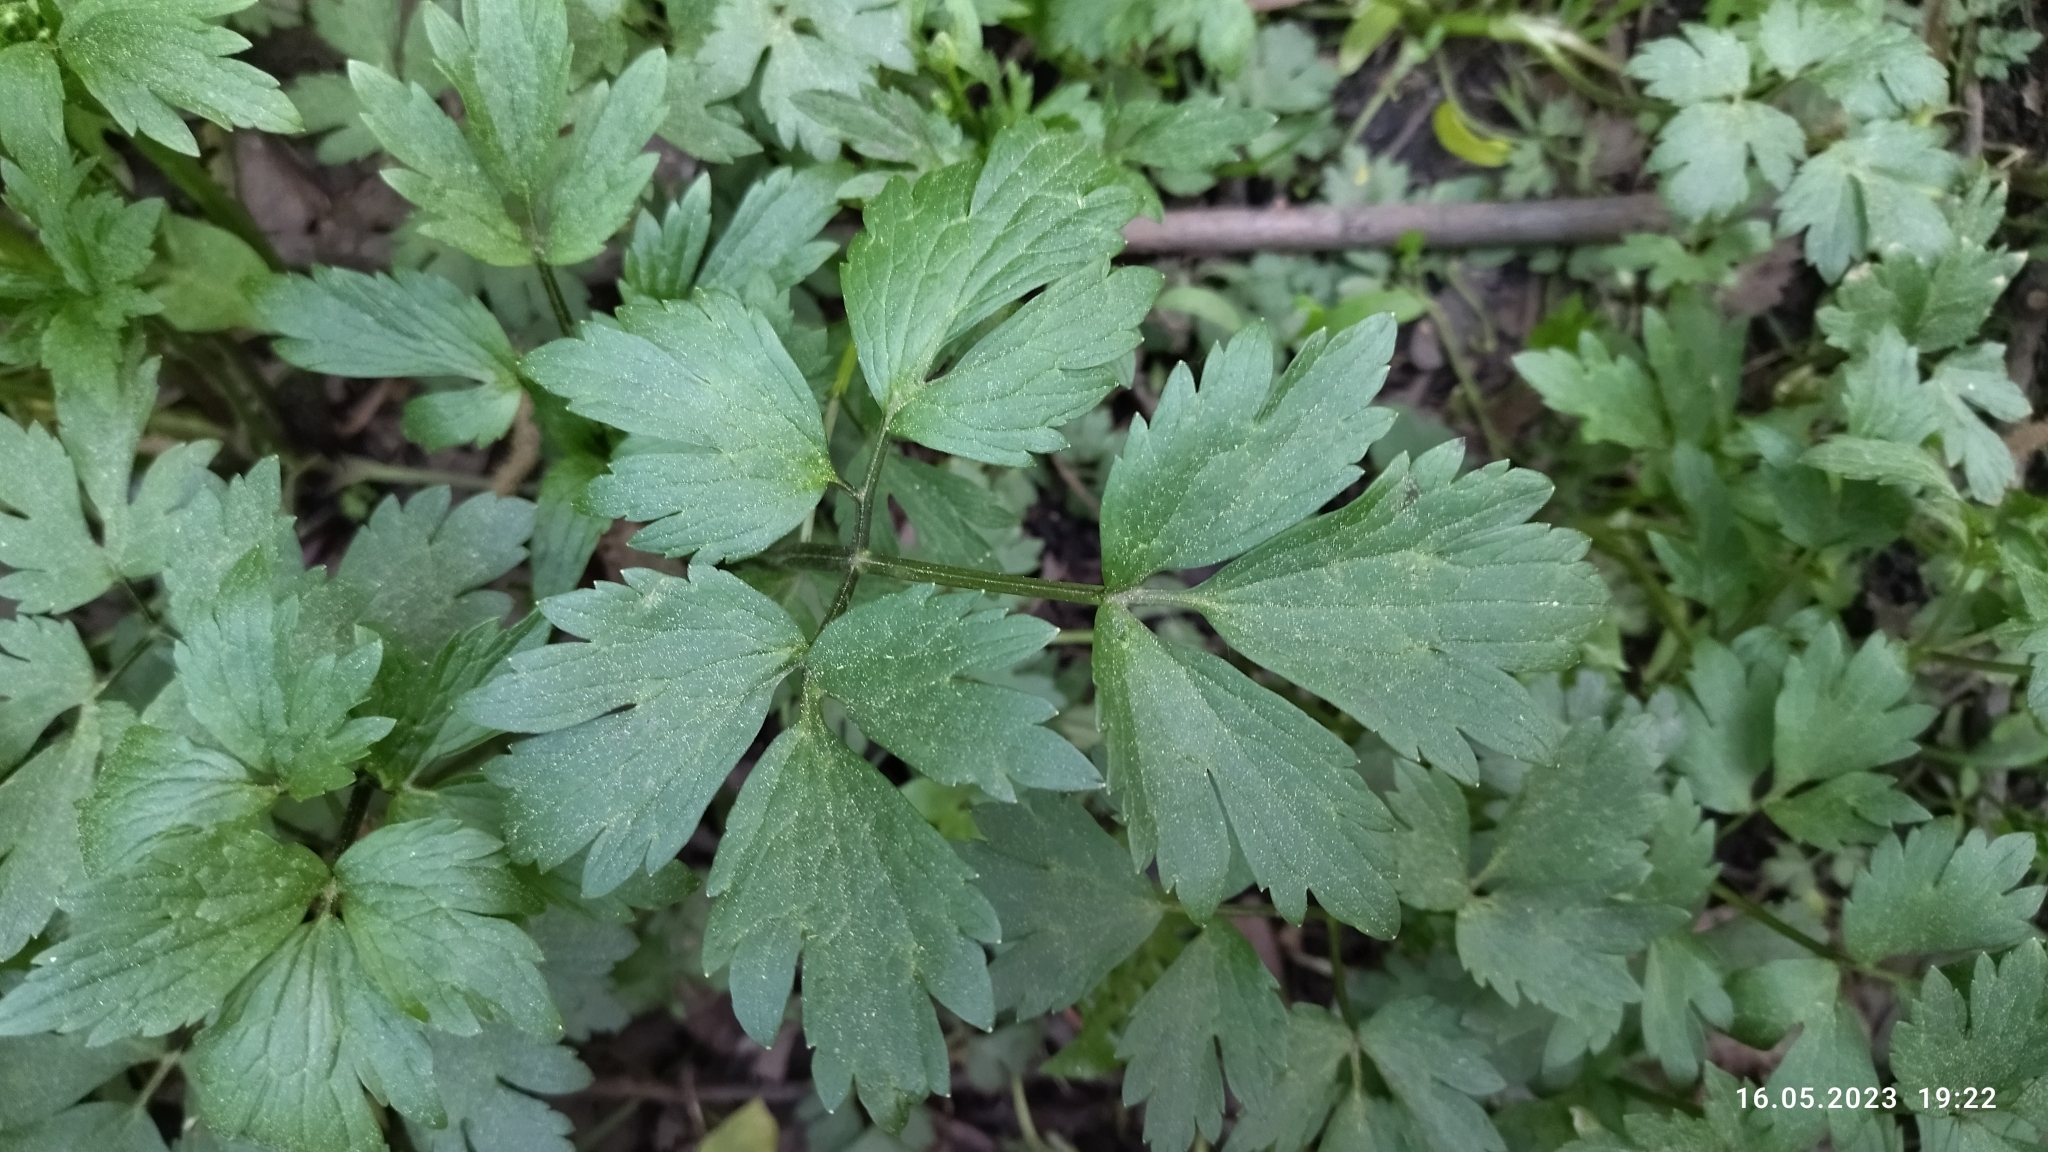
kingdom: Plantae
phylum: Tracheophyta
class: Magnoliopsida
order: Ranunculales
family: Ranunculaceae
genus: Ranunculus
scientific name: Ranunculus repens
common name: Creeping buttercup
